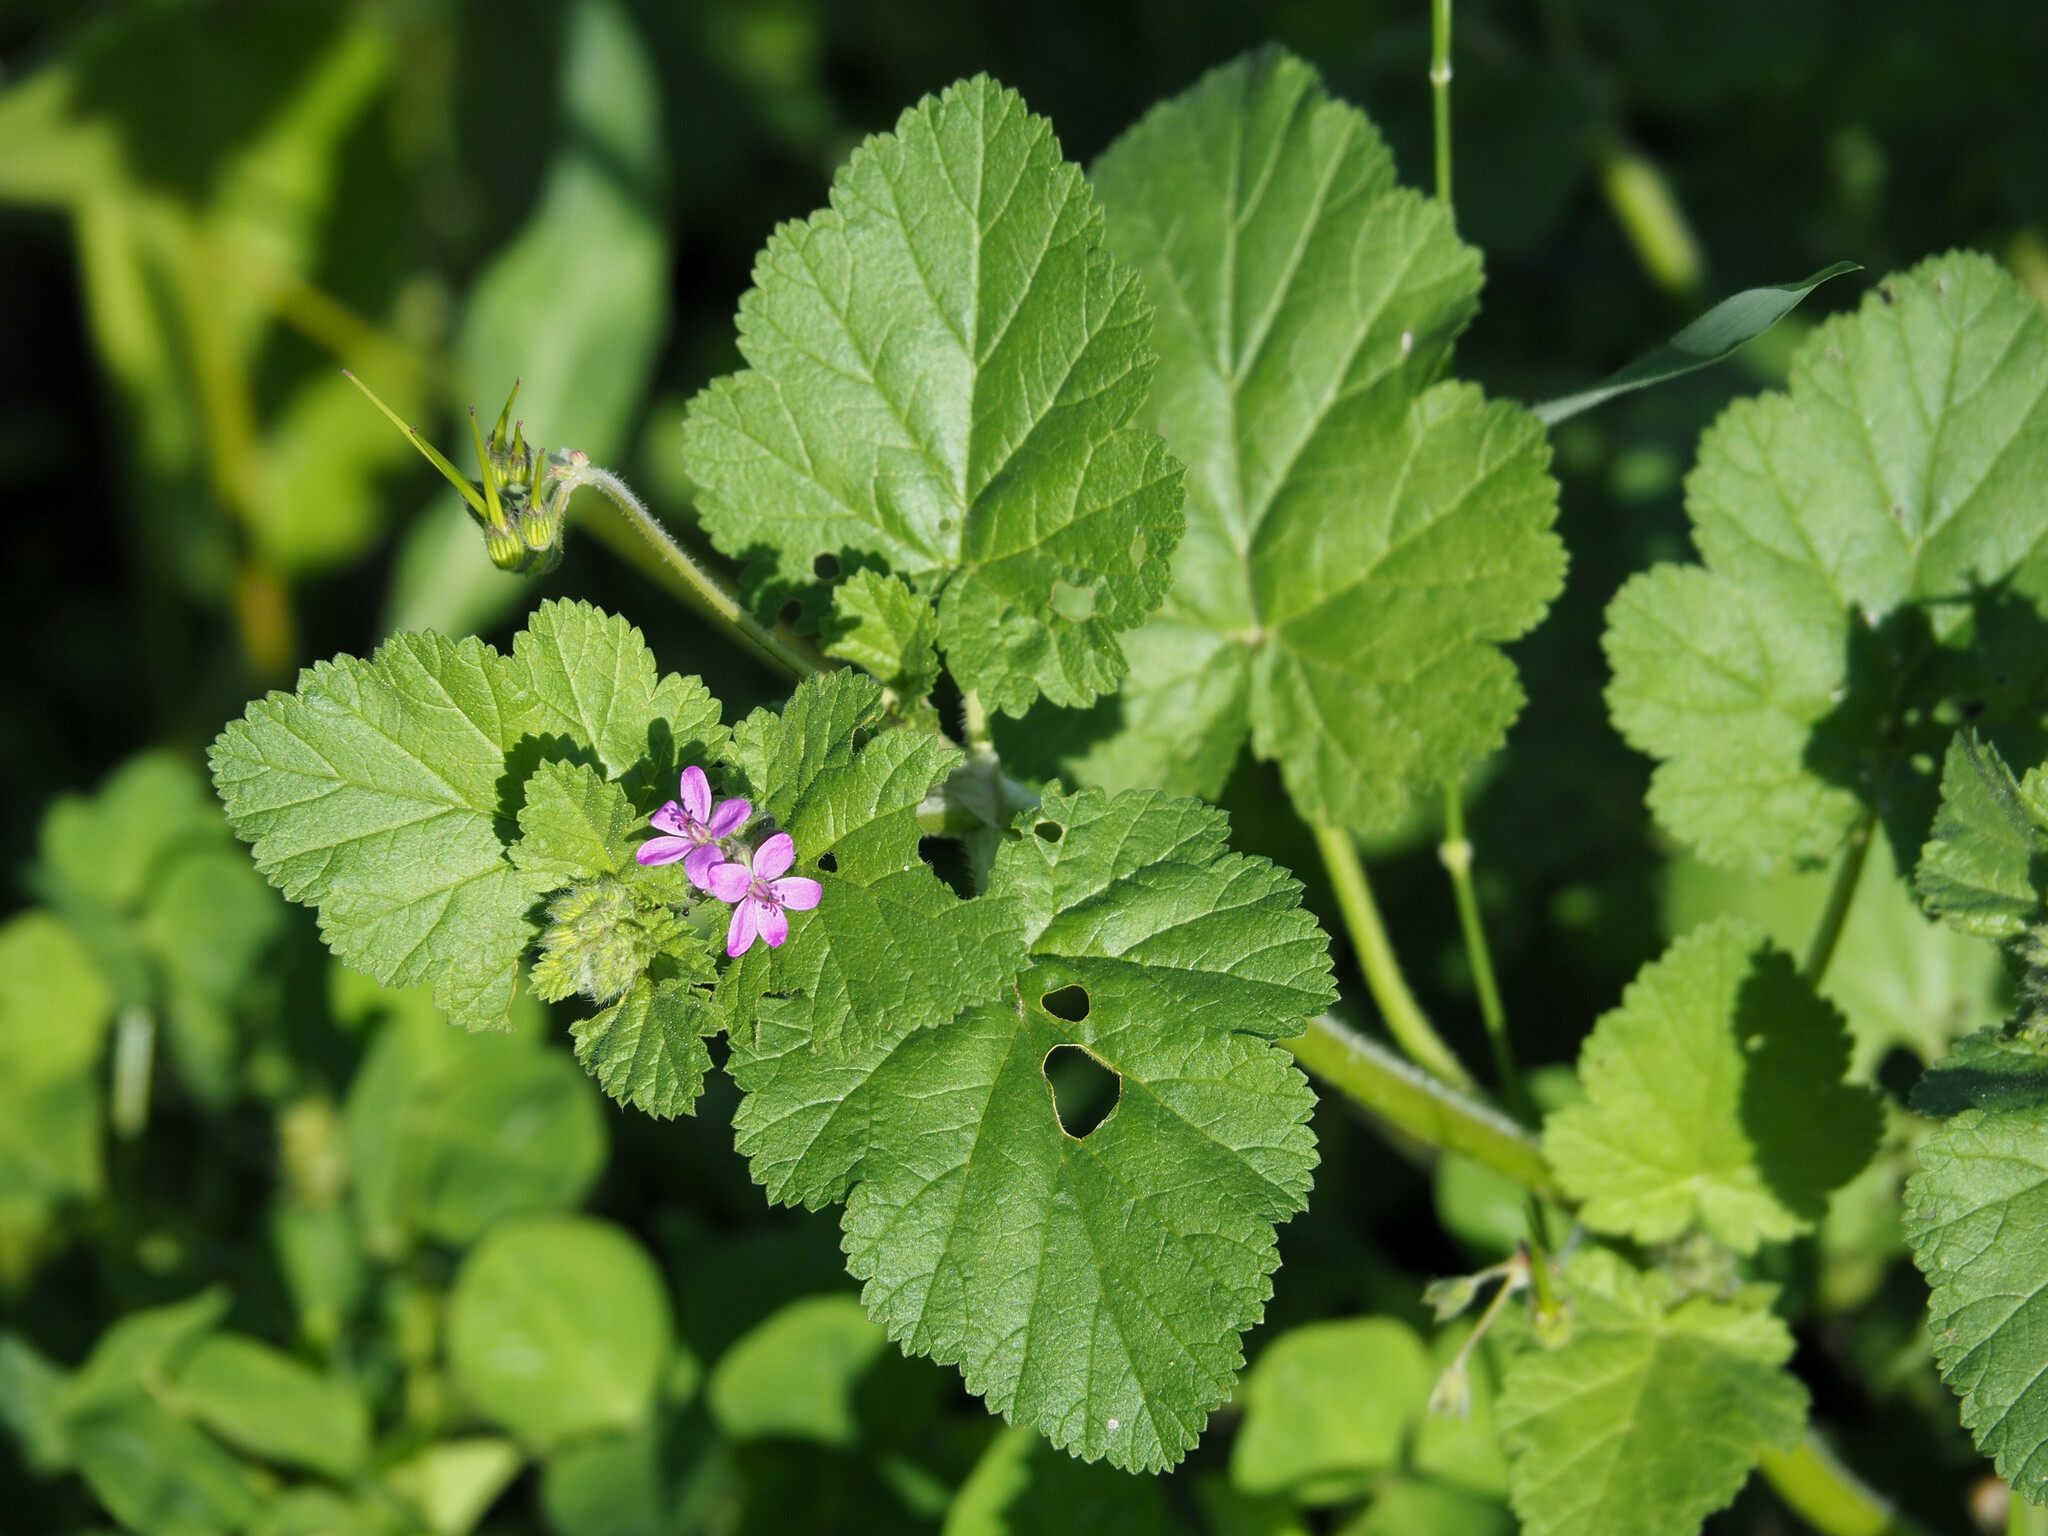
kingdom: Plantae
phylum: Tracheophyta
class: Magnoliopsida
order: Geraniales
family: Geraniaceae
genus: Erodium
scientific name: Erodium malacoides
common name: Soft stork's-bill
